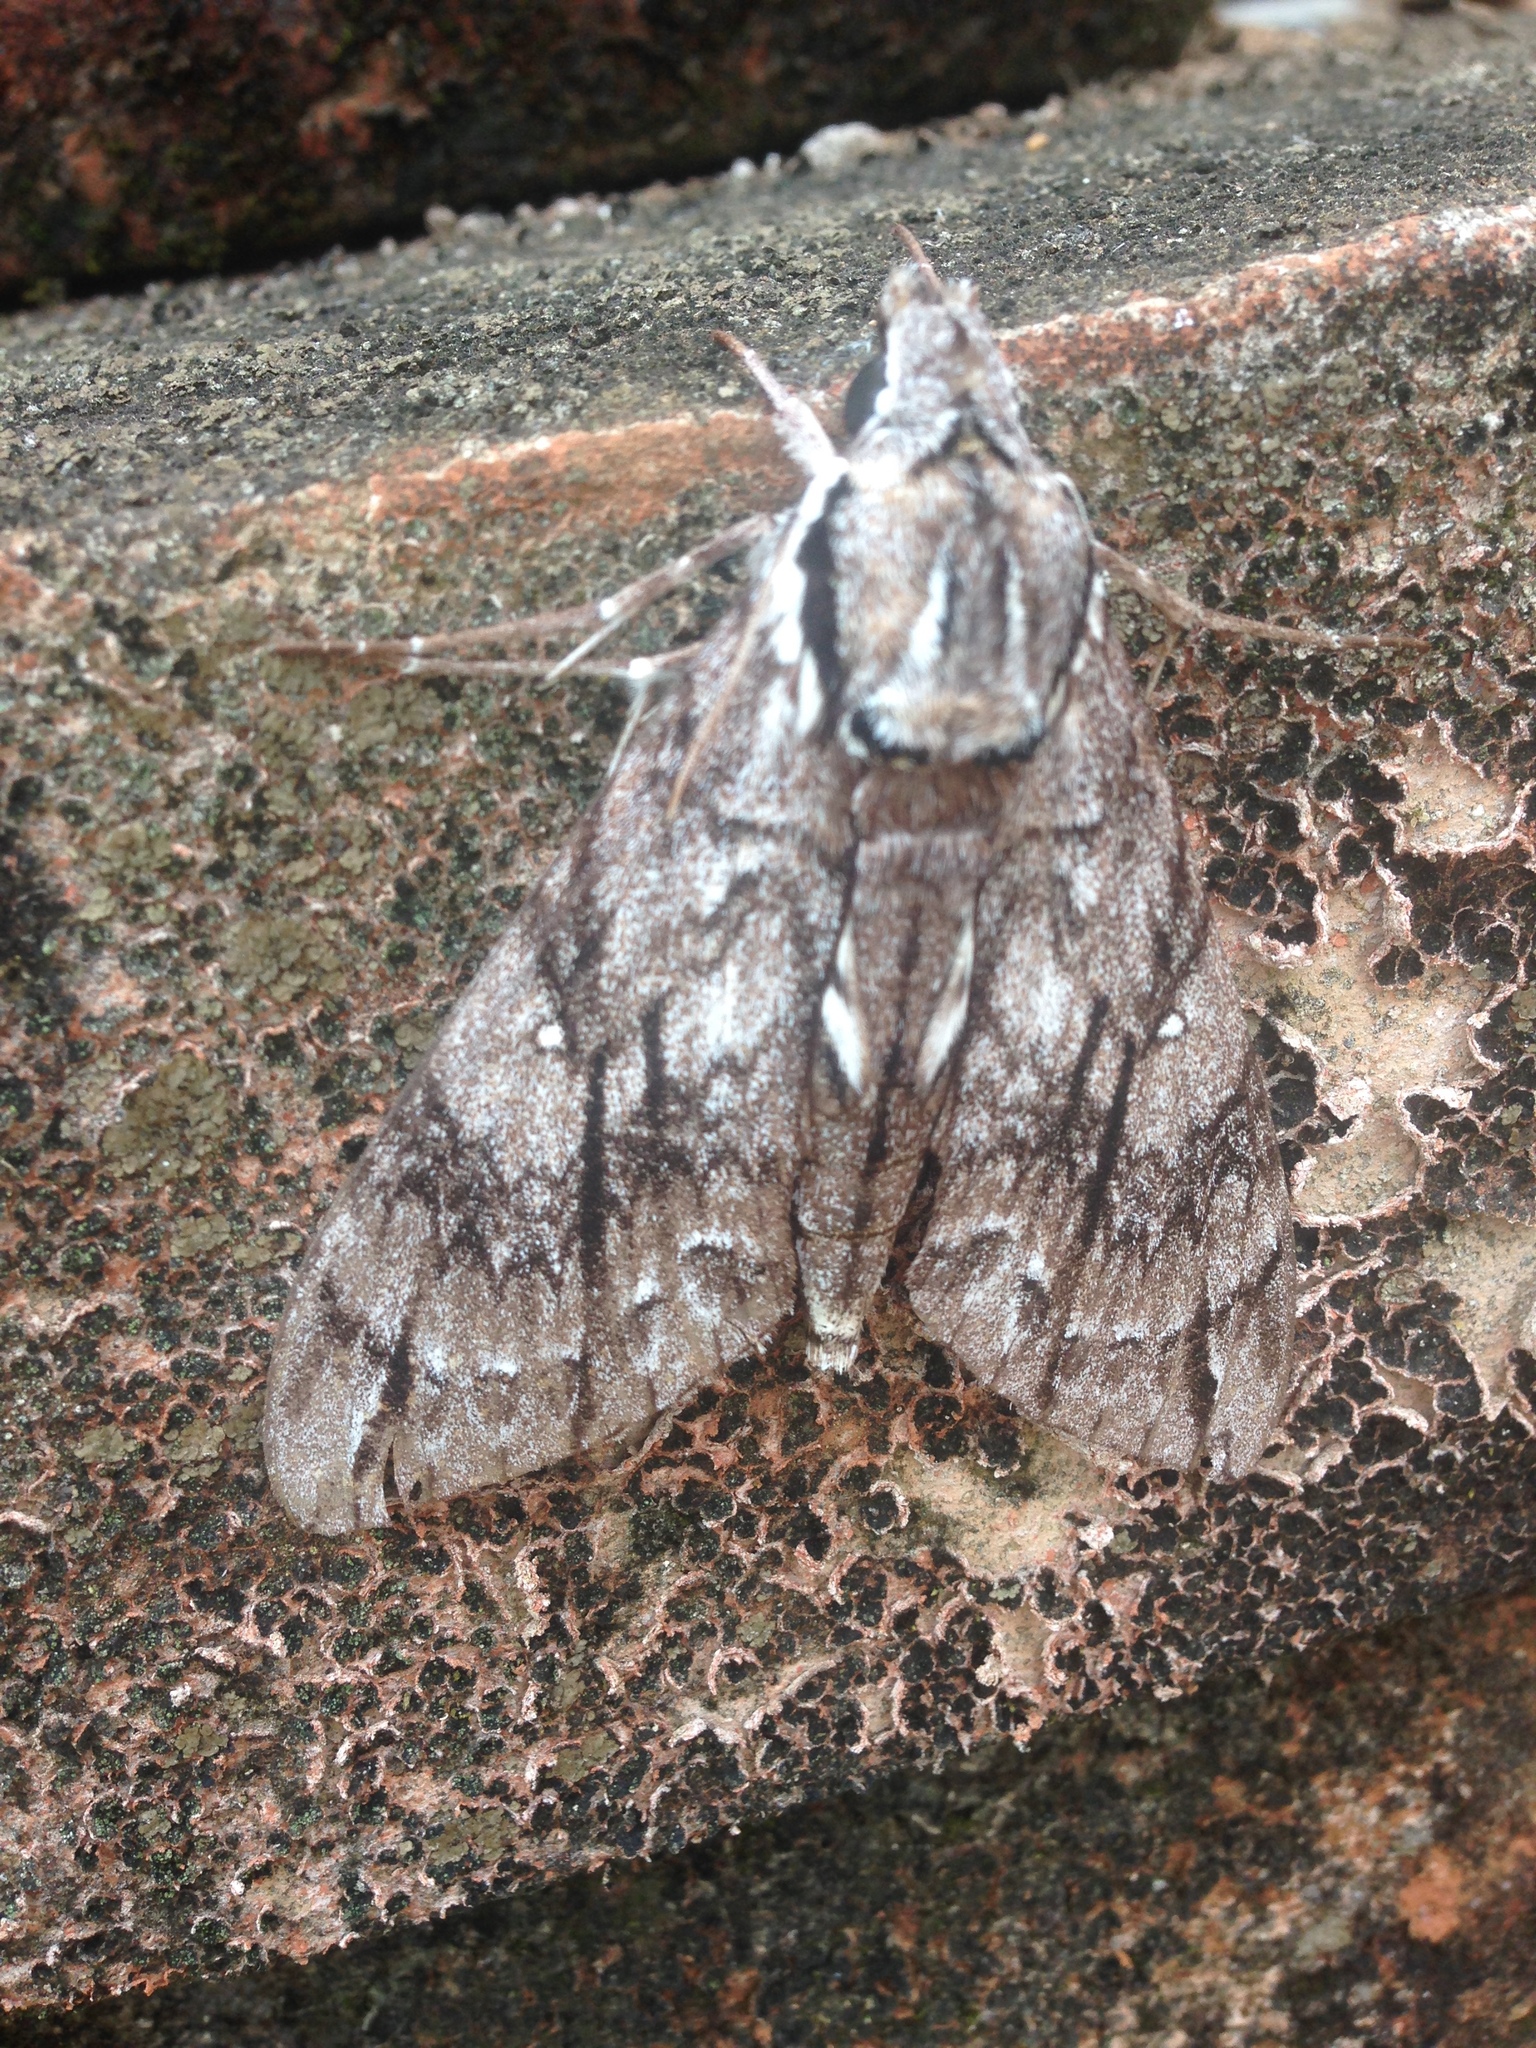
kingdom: Animalia
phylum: Arthropoda
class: Insecta
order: Lepidoptera
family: Sphingidae
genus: Panogena
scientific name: Panogena jasmini
